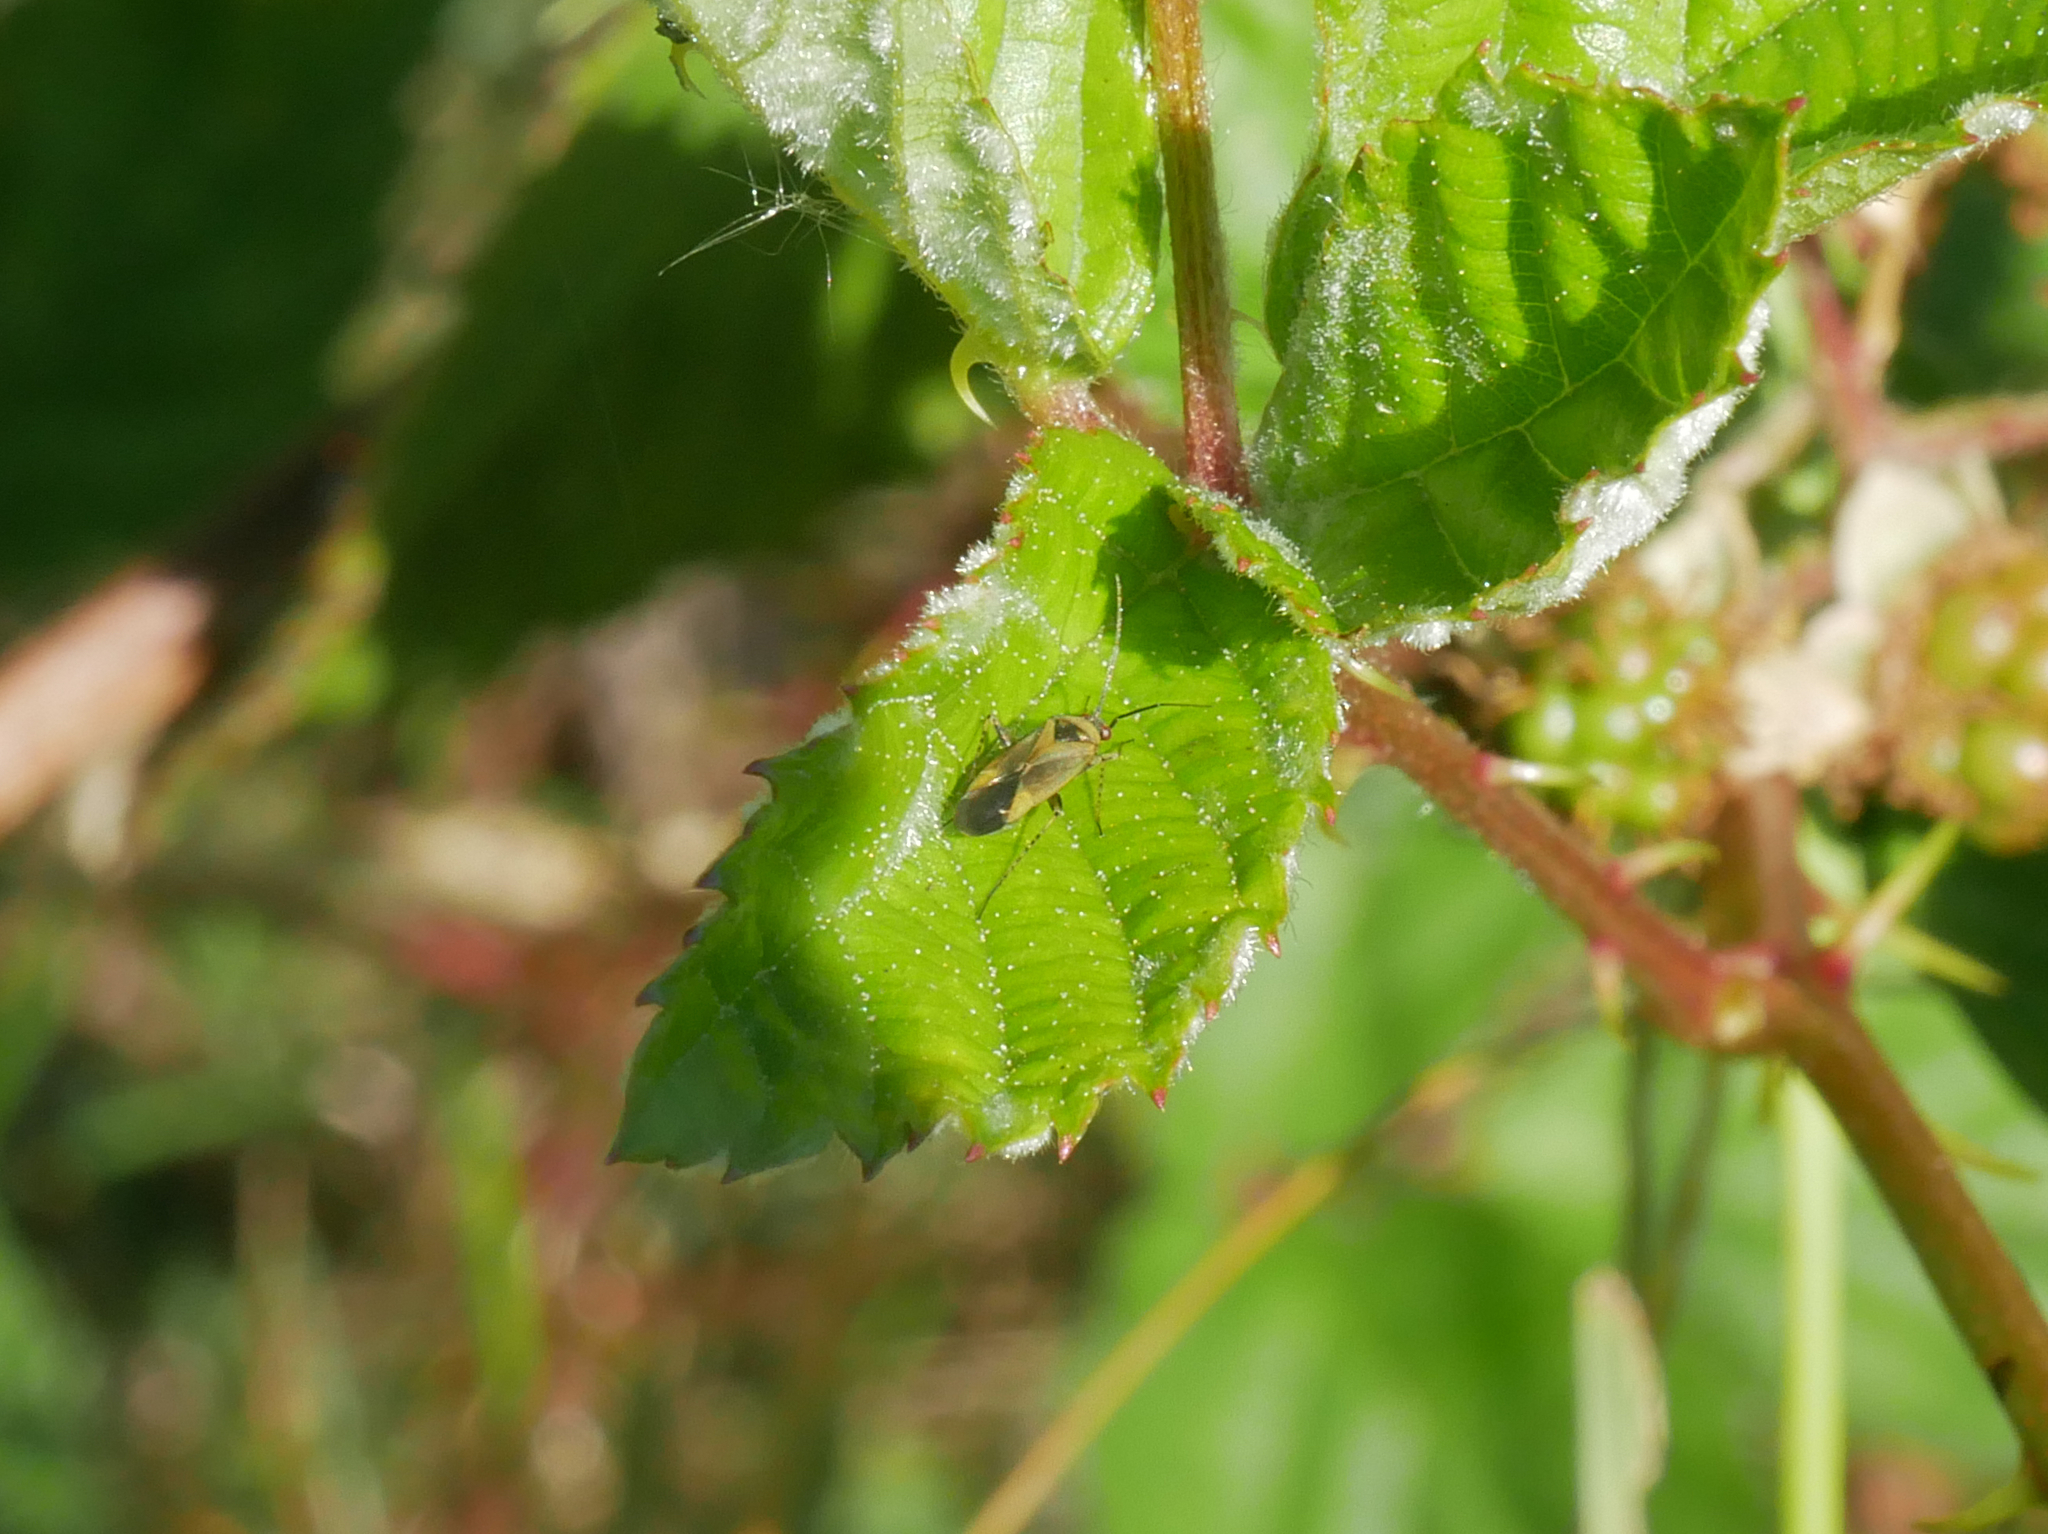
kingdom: Animalia
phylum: Arthropoda
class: Insecta
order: Hemiptera
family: Miridae
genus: Plagiognathus
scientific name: Plagiognathus arbustorum
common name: Plant bug
